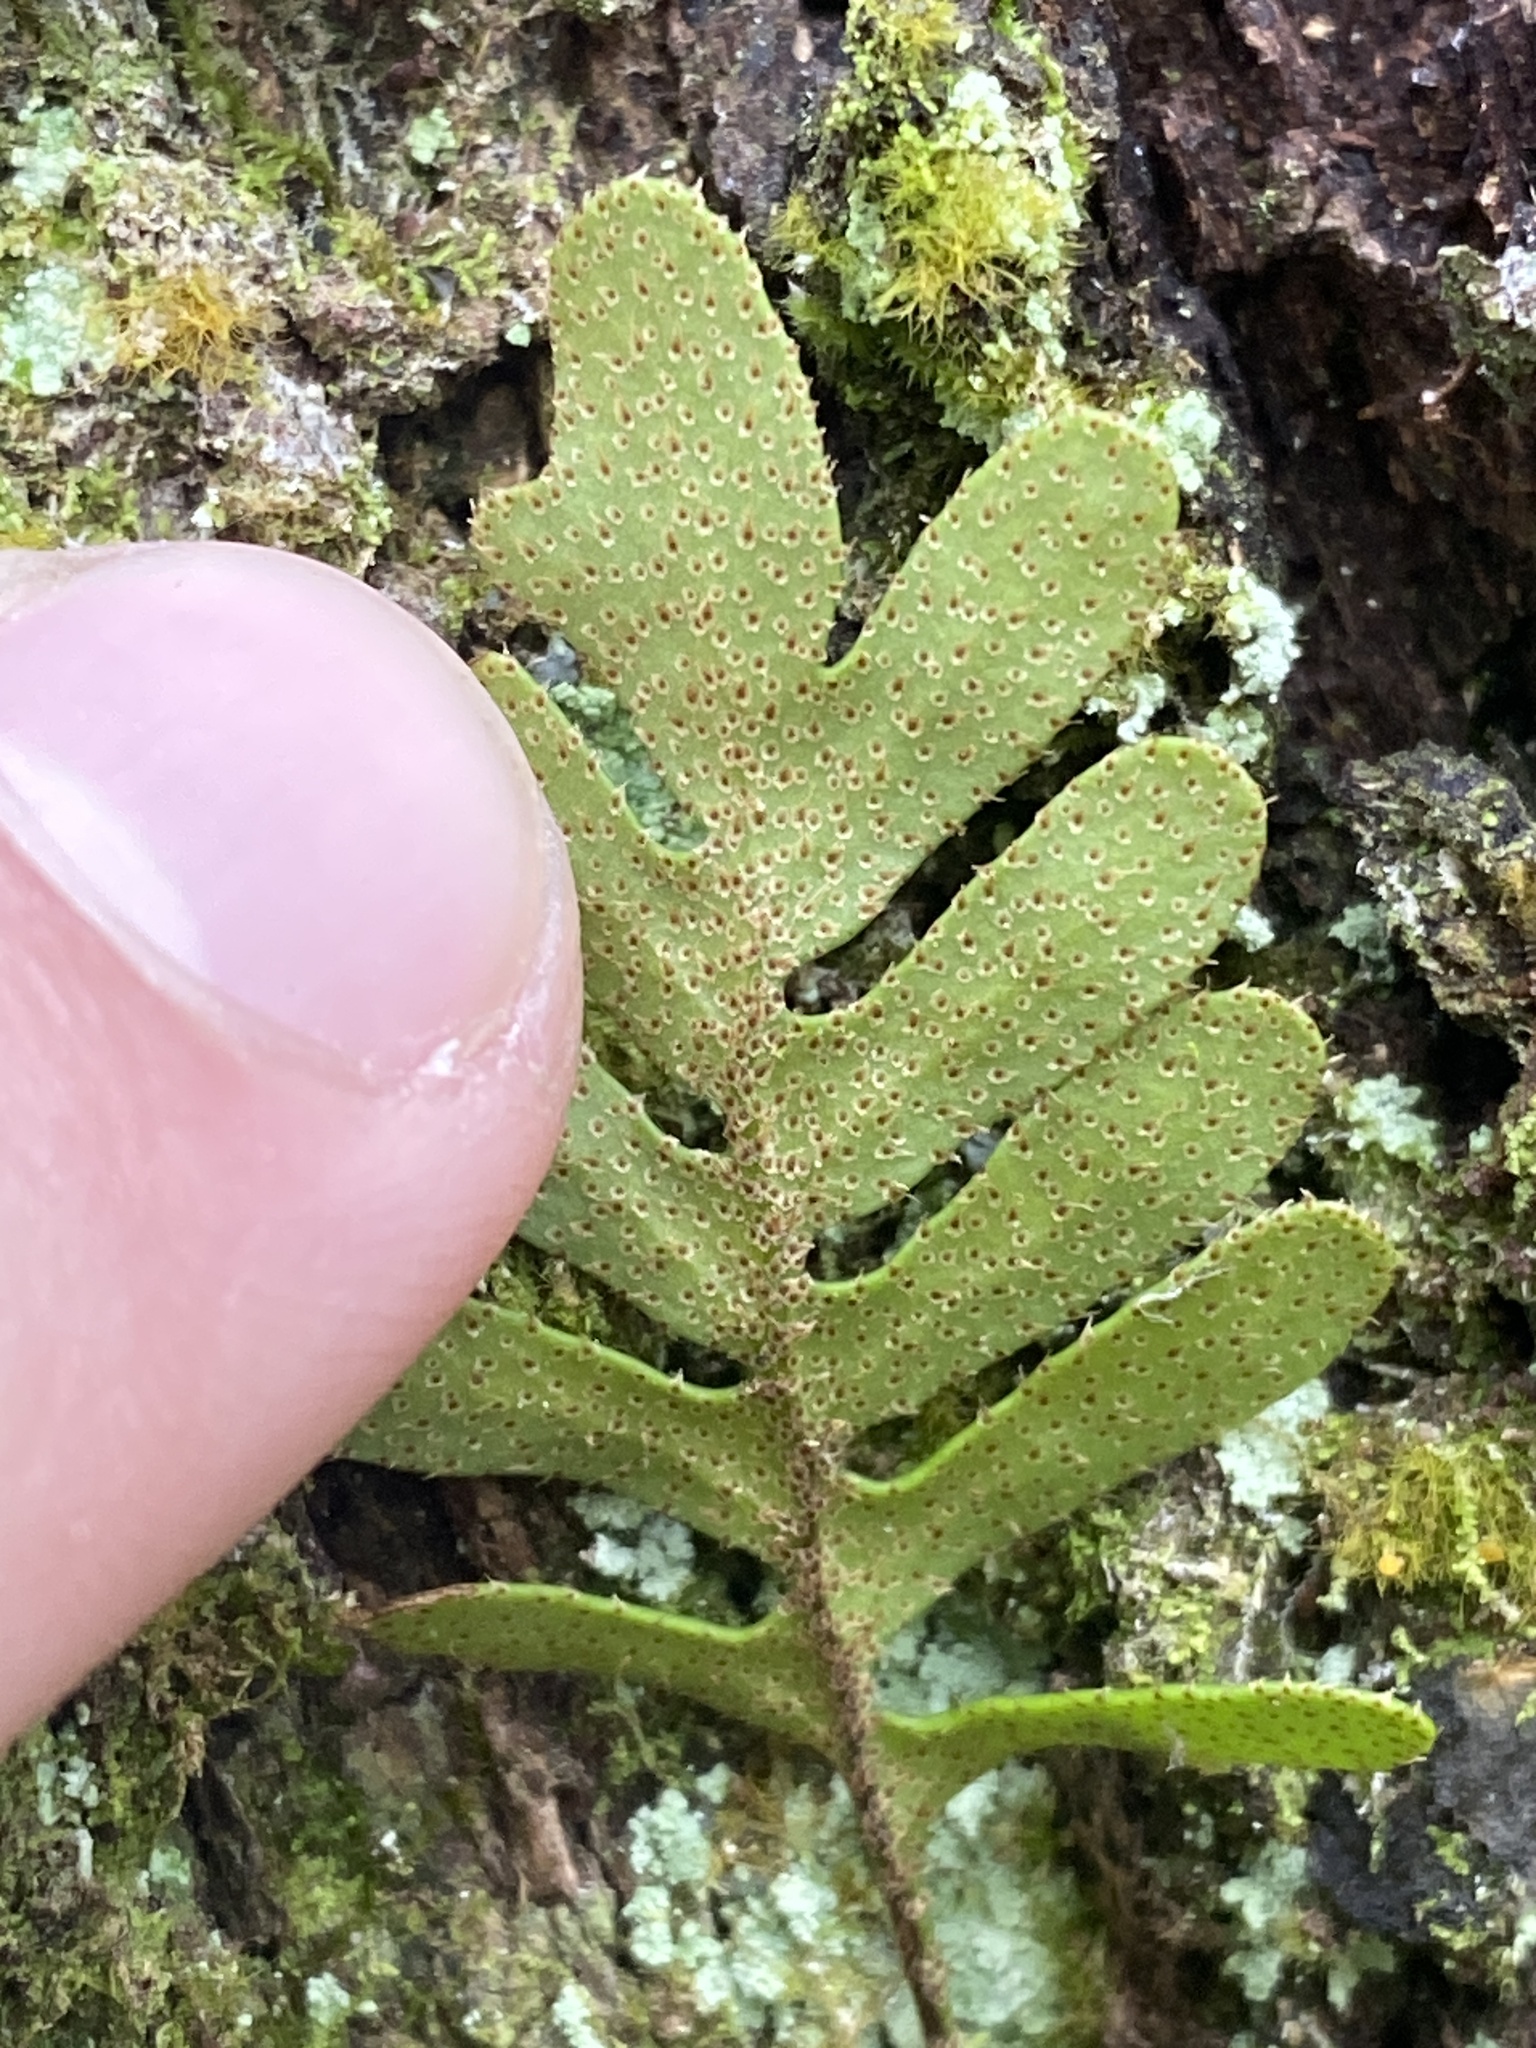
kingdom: Plantae
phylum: Tracheophyta
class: Polypodiopsida
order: Polypodiales
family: Polypodiaceae
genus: Pleopeltis
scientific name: Pleopeltis michauxiana
